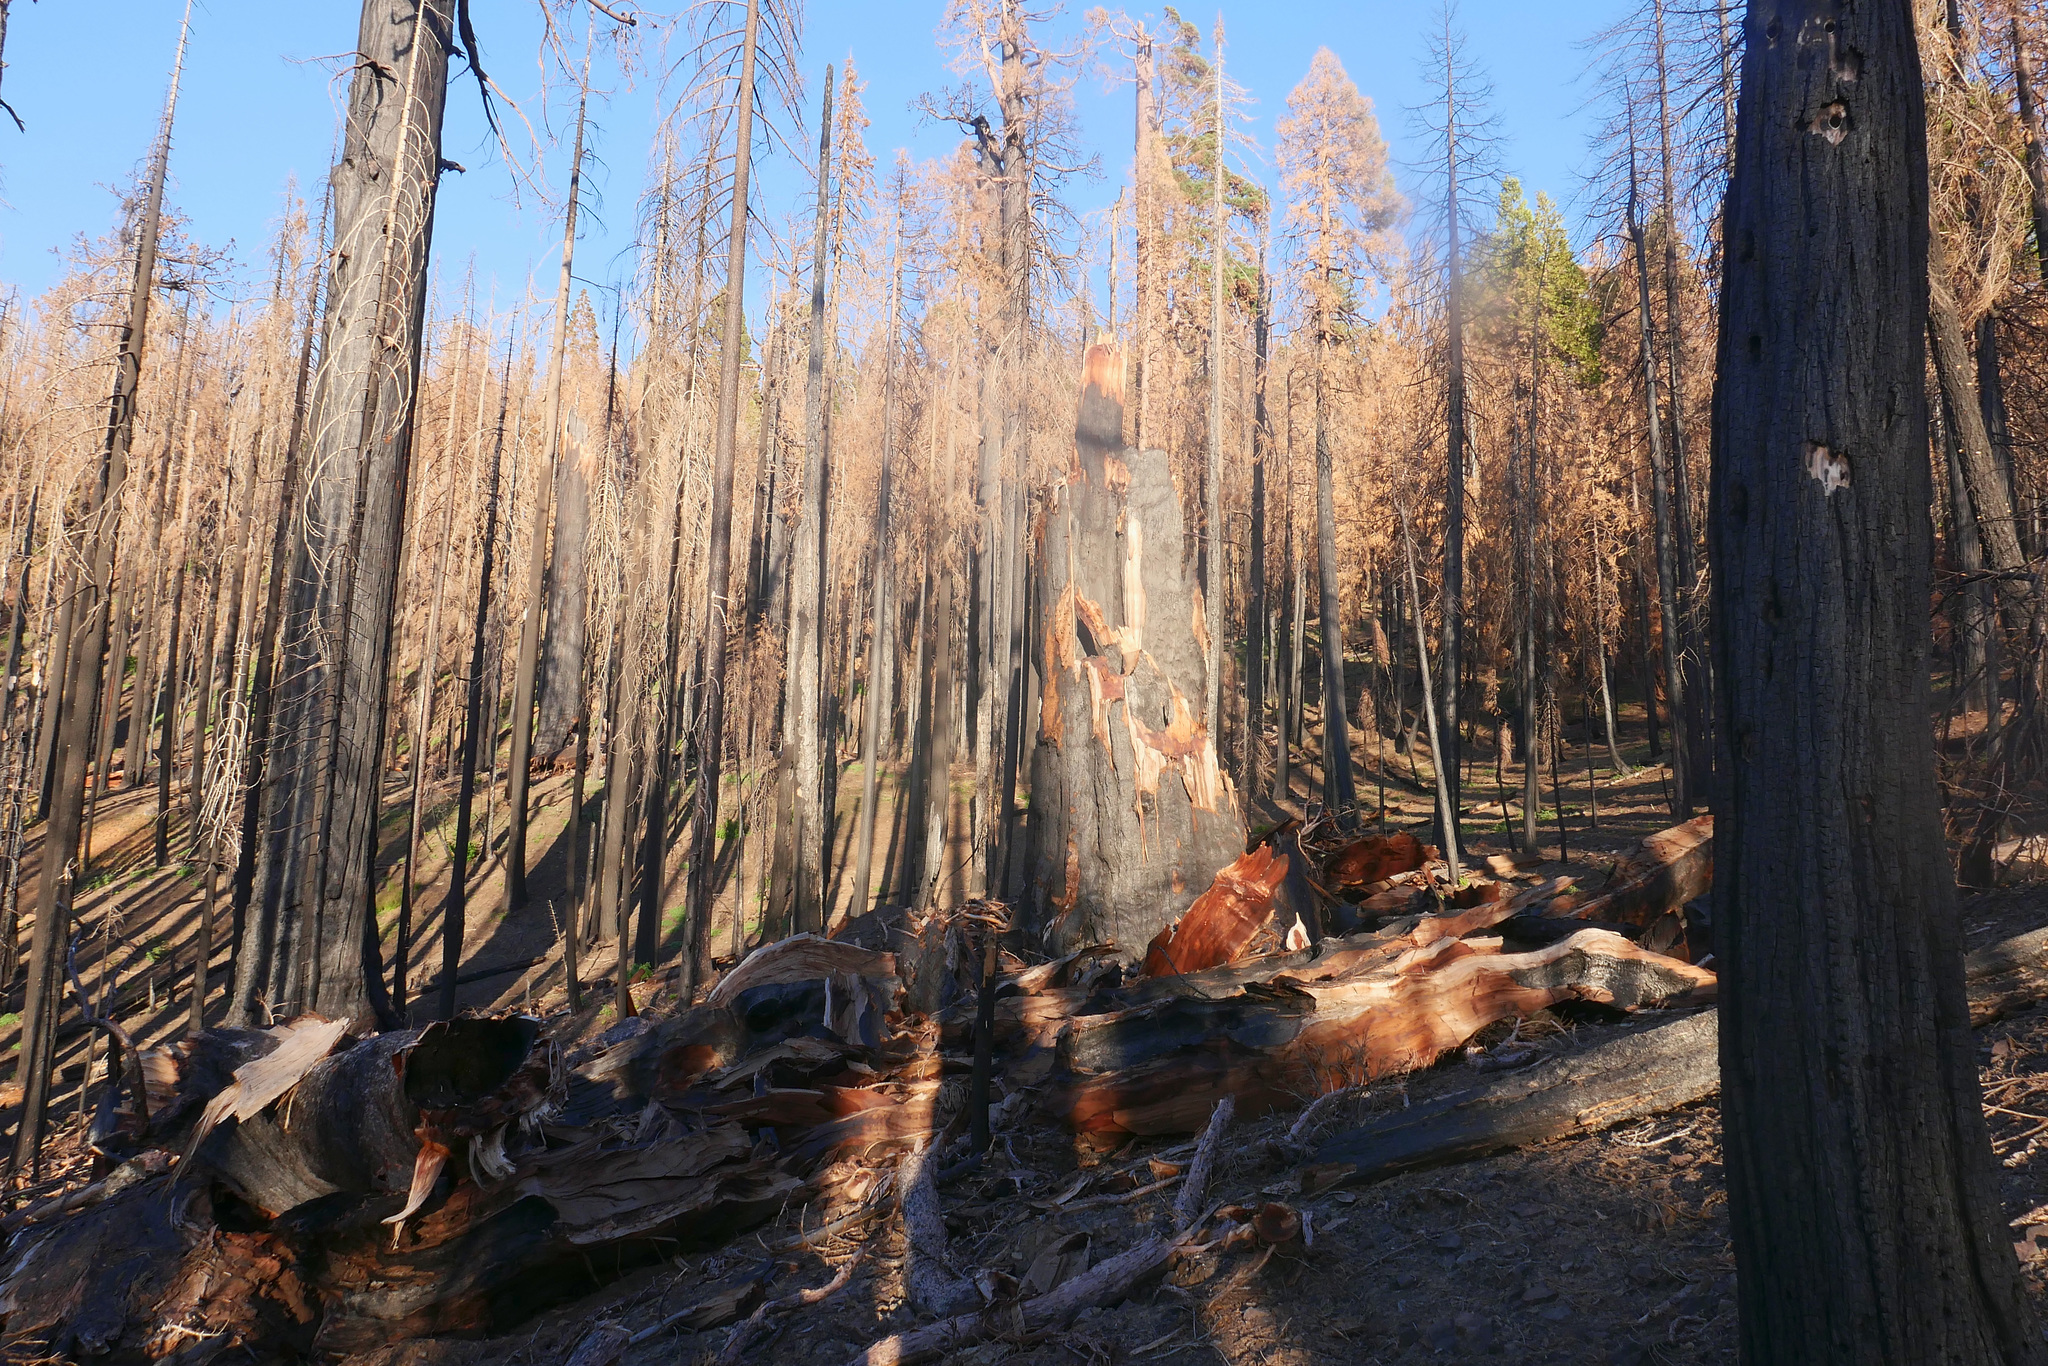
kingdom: Plantae
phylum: Tracheophyta
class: Pinopsida
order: Pinales
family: Cupressaceae
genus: Sequoiadendron
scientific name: Sequoiadendron giganteum
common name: Wellingtonia
